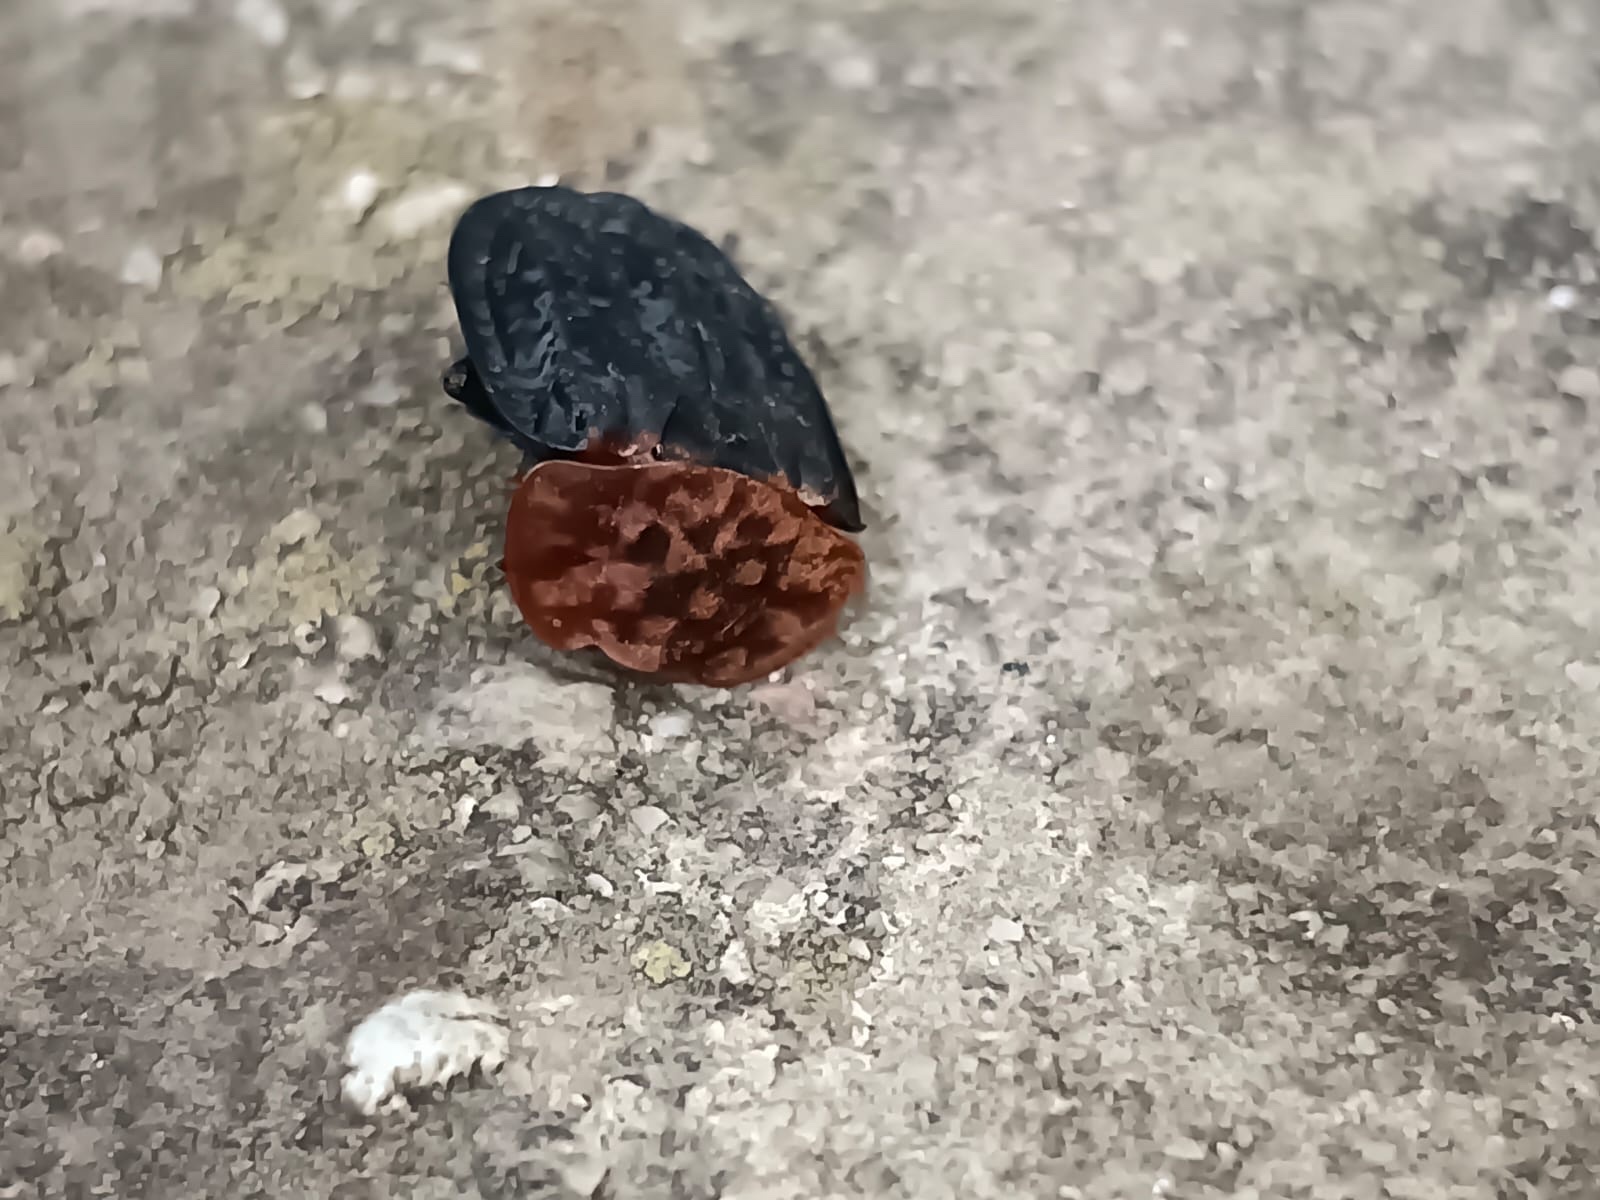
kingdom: Animalia
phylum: Arthropoda
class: Insecta
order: Coleoptera
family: Staphylinidae
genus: Oiceoptoma
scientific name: Oiceoptoma thoracicum
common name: Red-breasted carrion beetle
